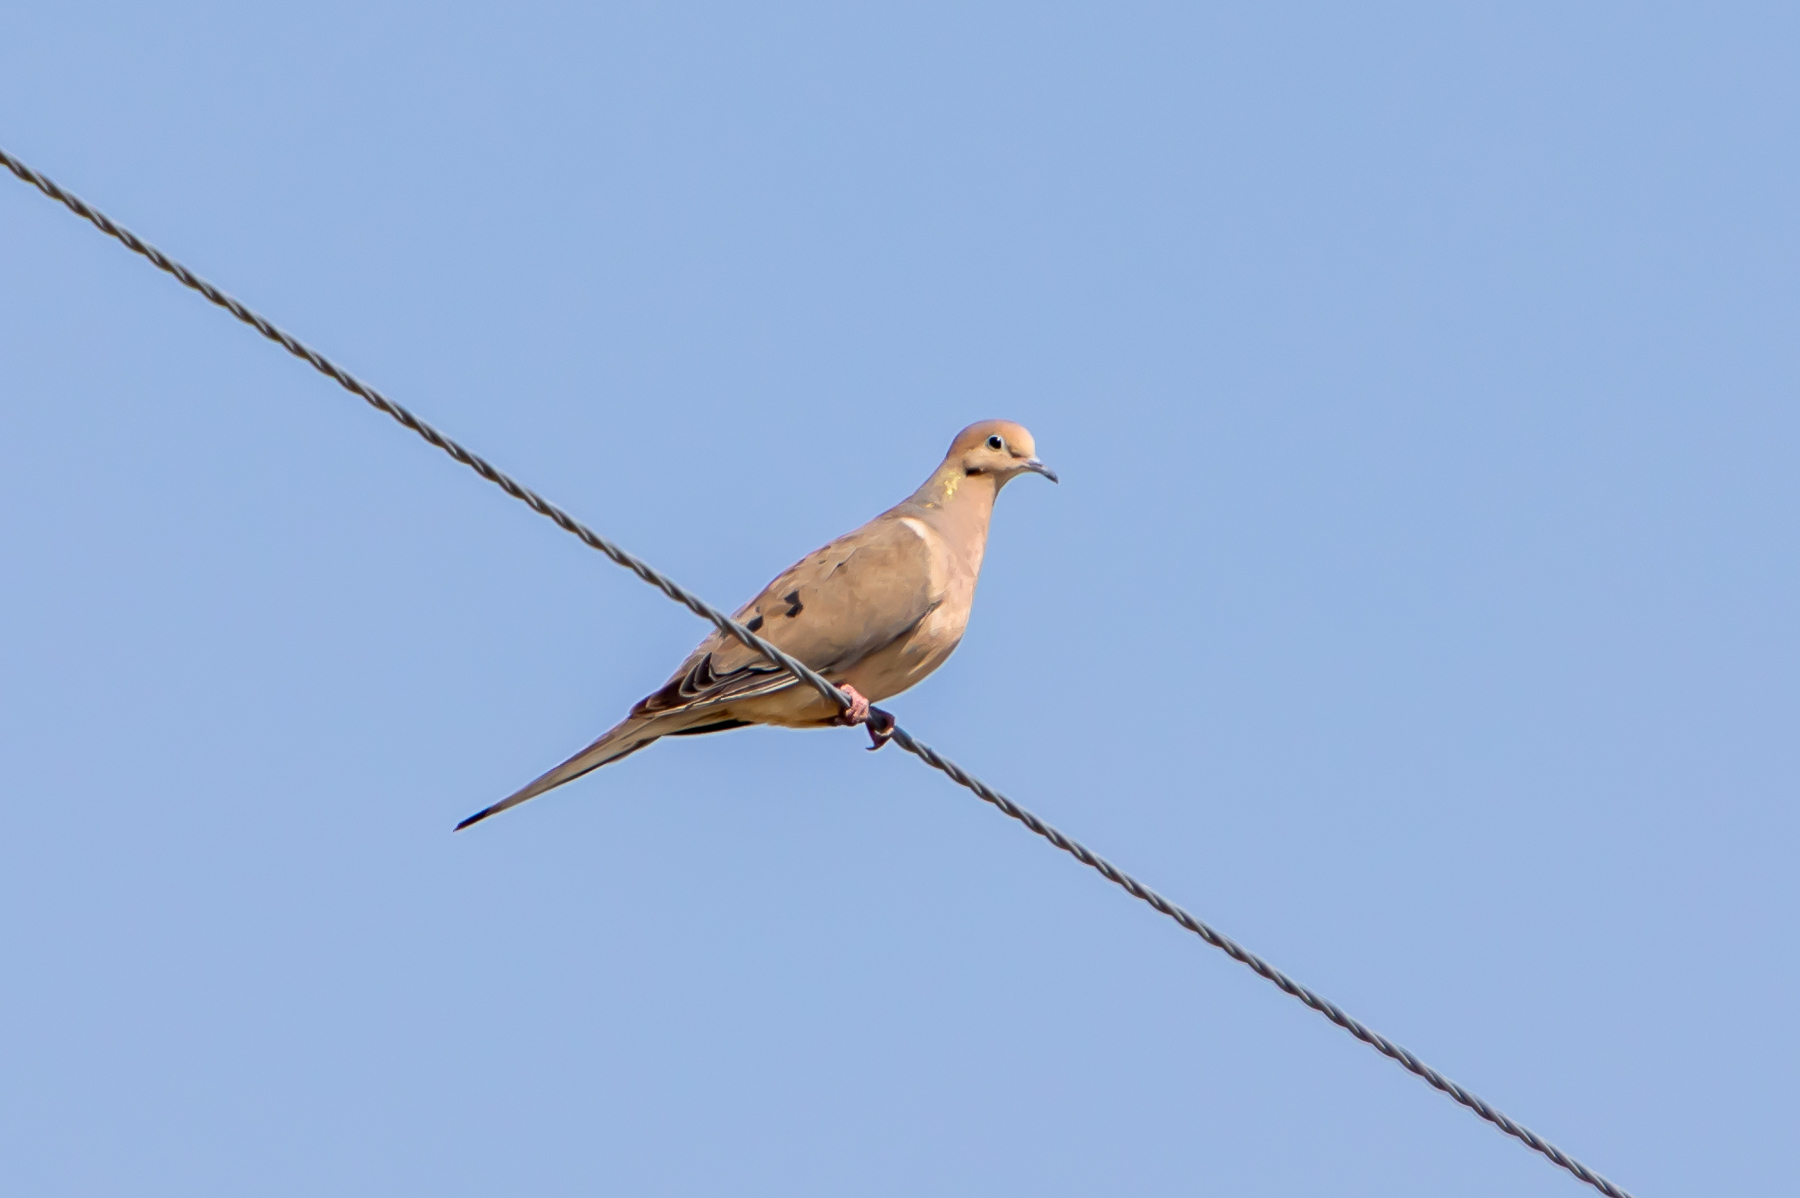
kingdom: Animalia
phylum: Chordata
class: Aves
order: Columbiformes
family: Columbidae
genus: Zenaida
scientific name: Zenaida macroura
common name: Mourning dove
